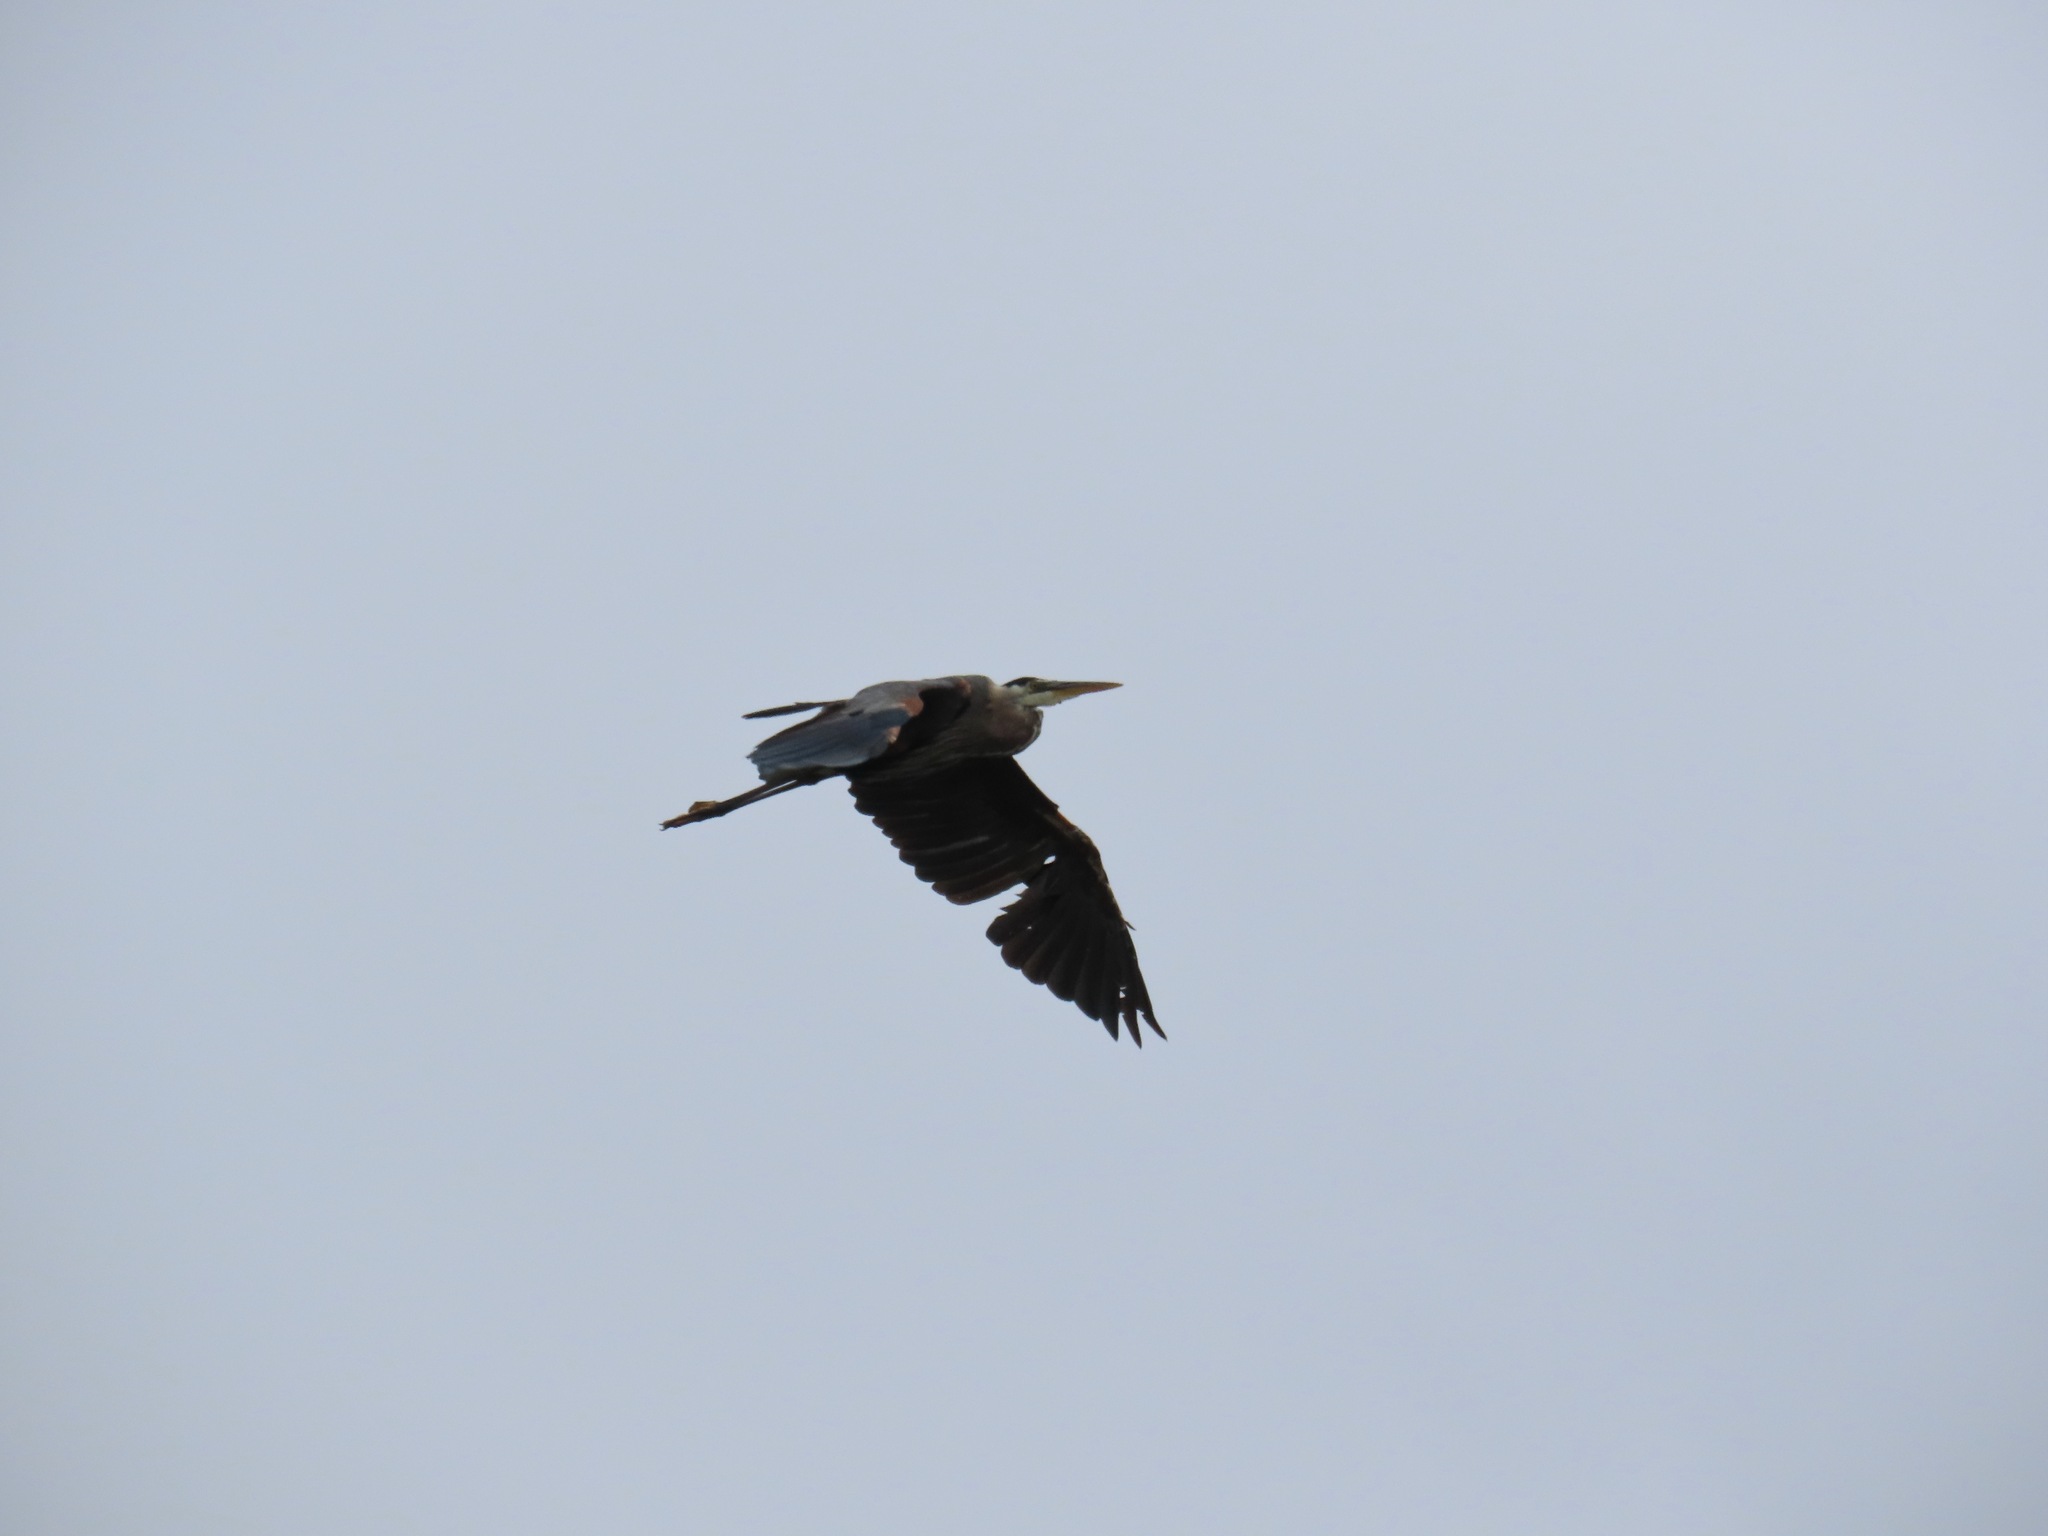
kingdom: Animalia
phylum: Chordata
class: Aves
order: Pelecaniformes
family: Ardeidae
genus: Ardea
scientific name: Ardea herodias
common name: Great blue heron
